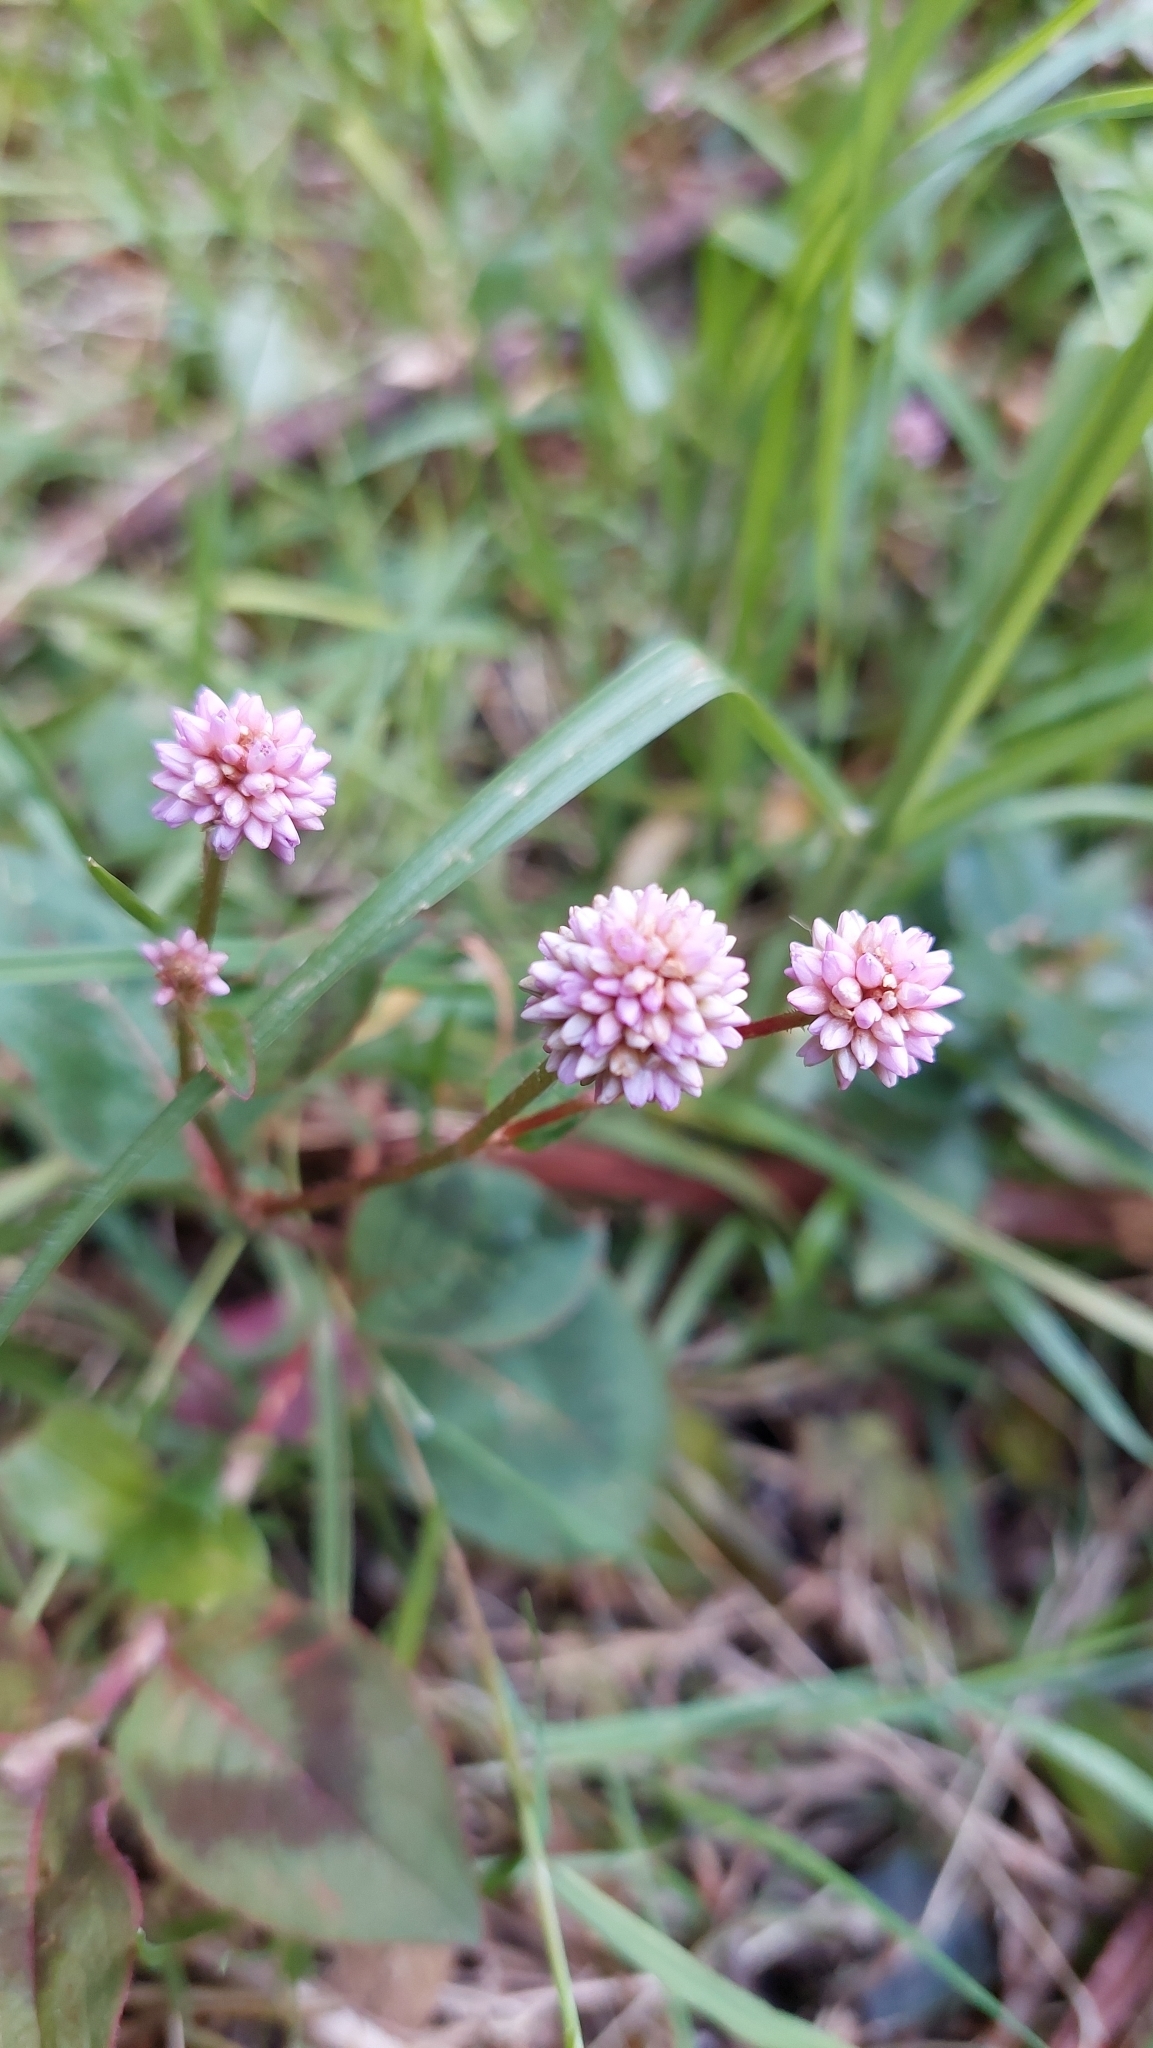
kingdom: Plantae
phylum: Tracheophyta
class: Magnoliopsida
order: Caryophyllales
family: Polygonaceae
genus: Persicaria
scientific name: Persicaria capitata
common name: Pinkhead smartweed
